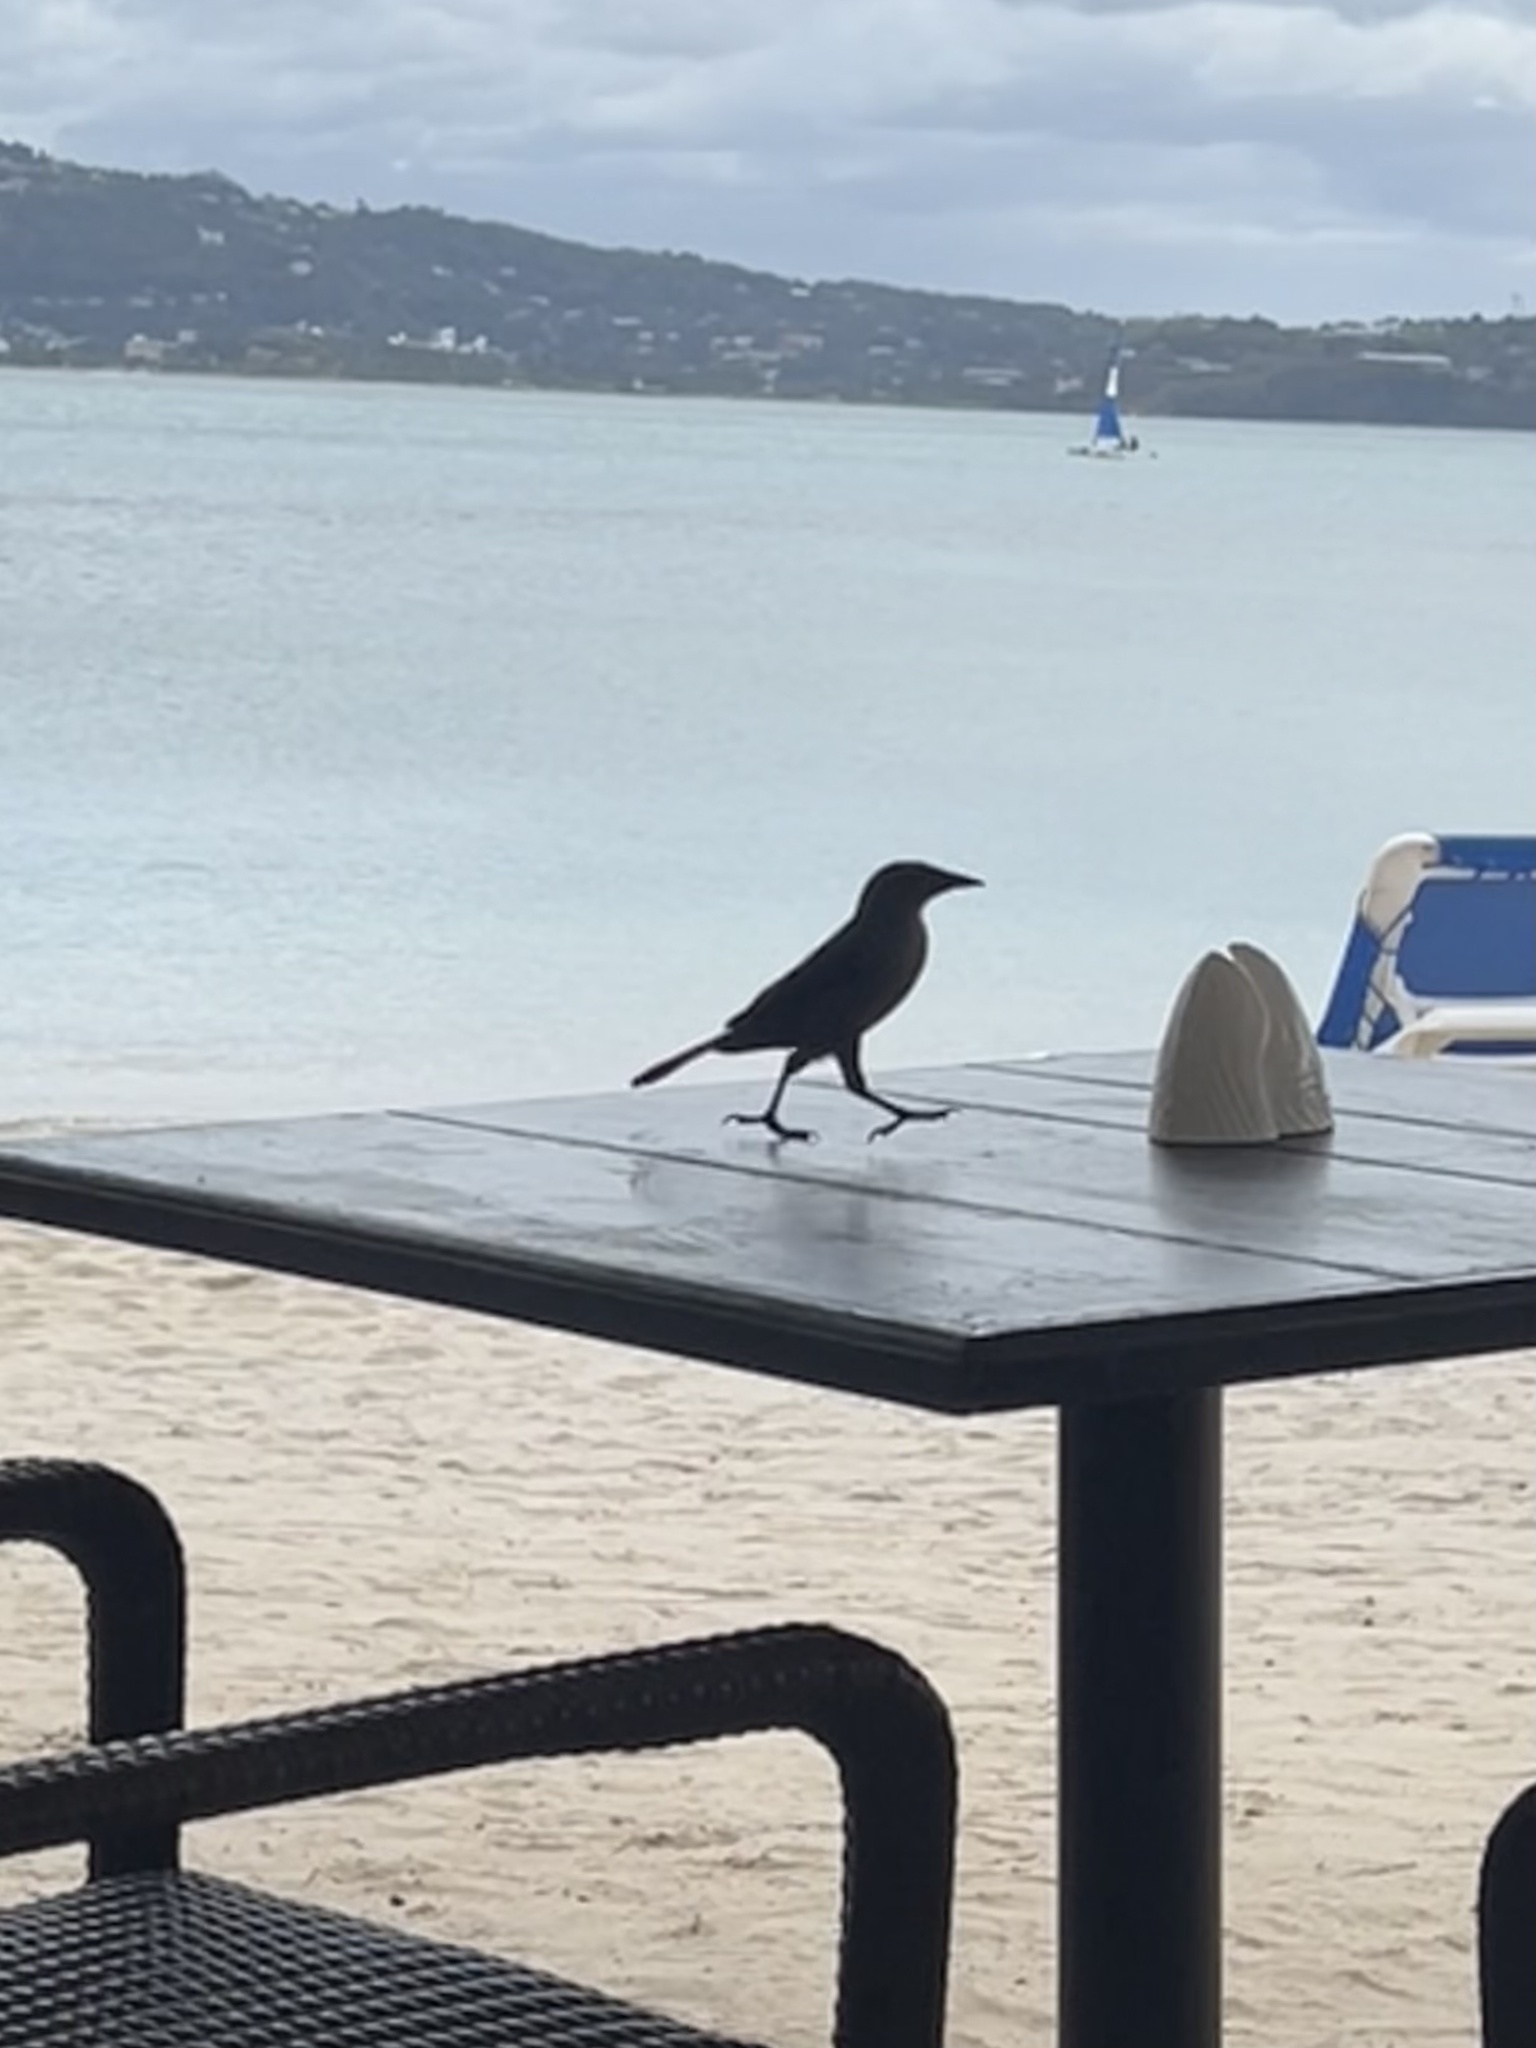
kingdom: Animalia
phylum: Chordata
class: Aves
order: Passeriformes
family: Icteridae
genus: Quiscalus
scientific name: Quiscalus lugubris
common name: Carib grackle
